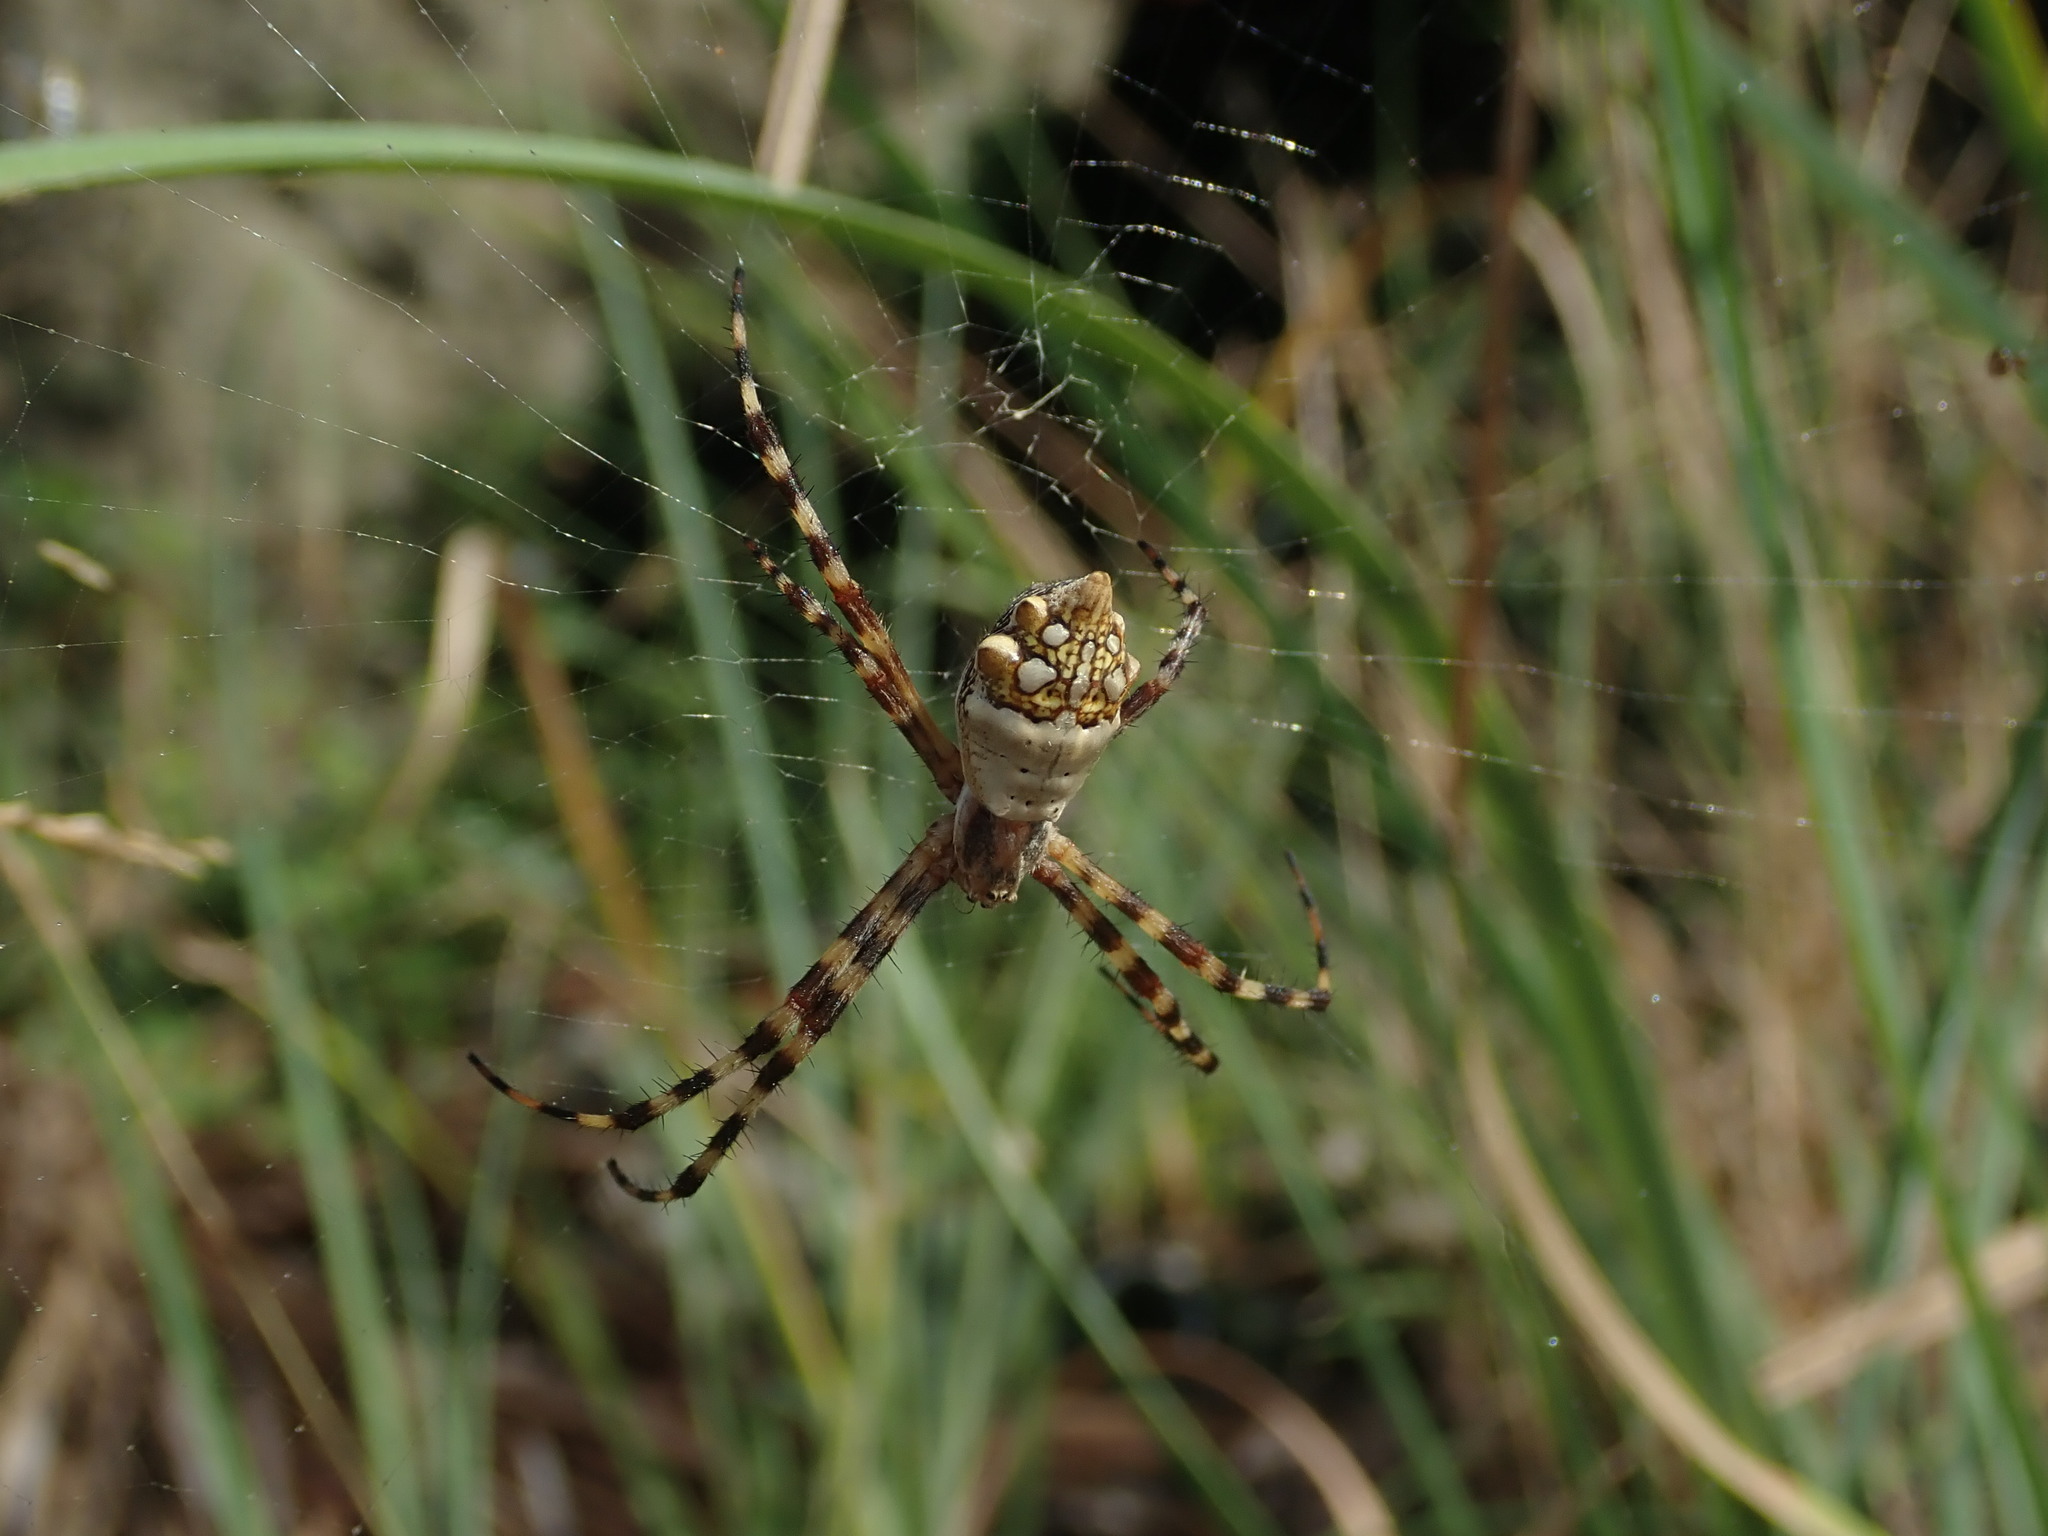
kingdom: Animalia
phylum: Arthropoda
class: Arachnida
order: Araneae
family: Araneidae
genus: Argiope
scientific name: Argiope argentata
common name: Orb weavers
